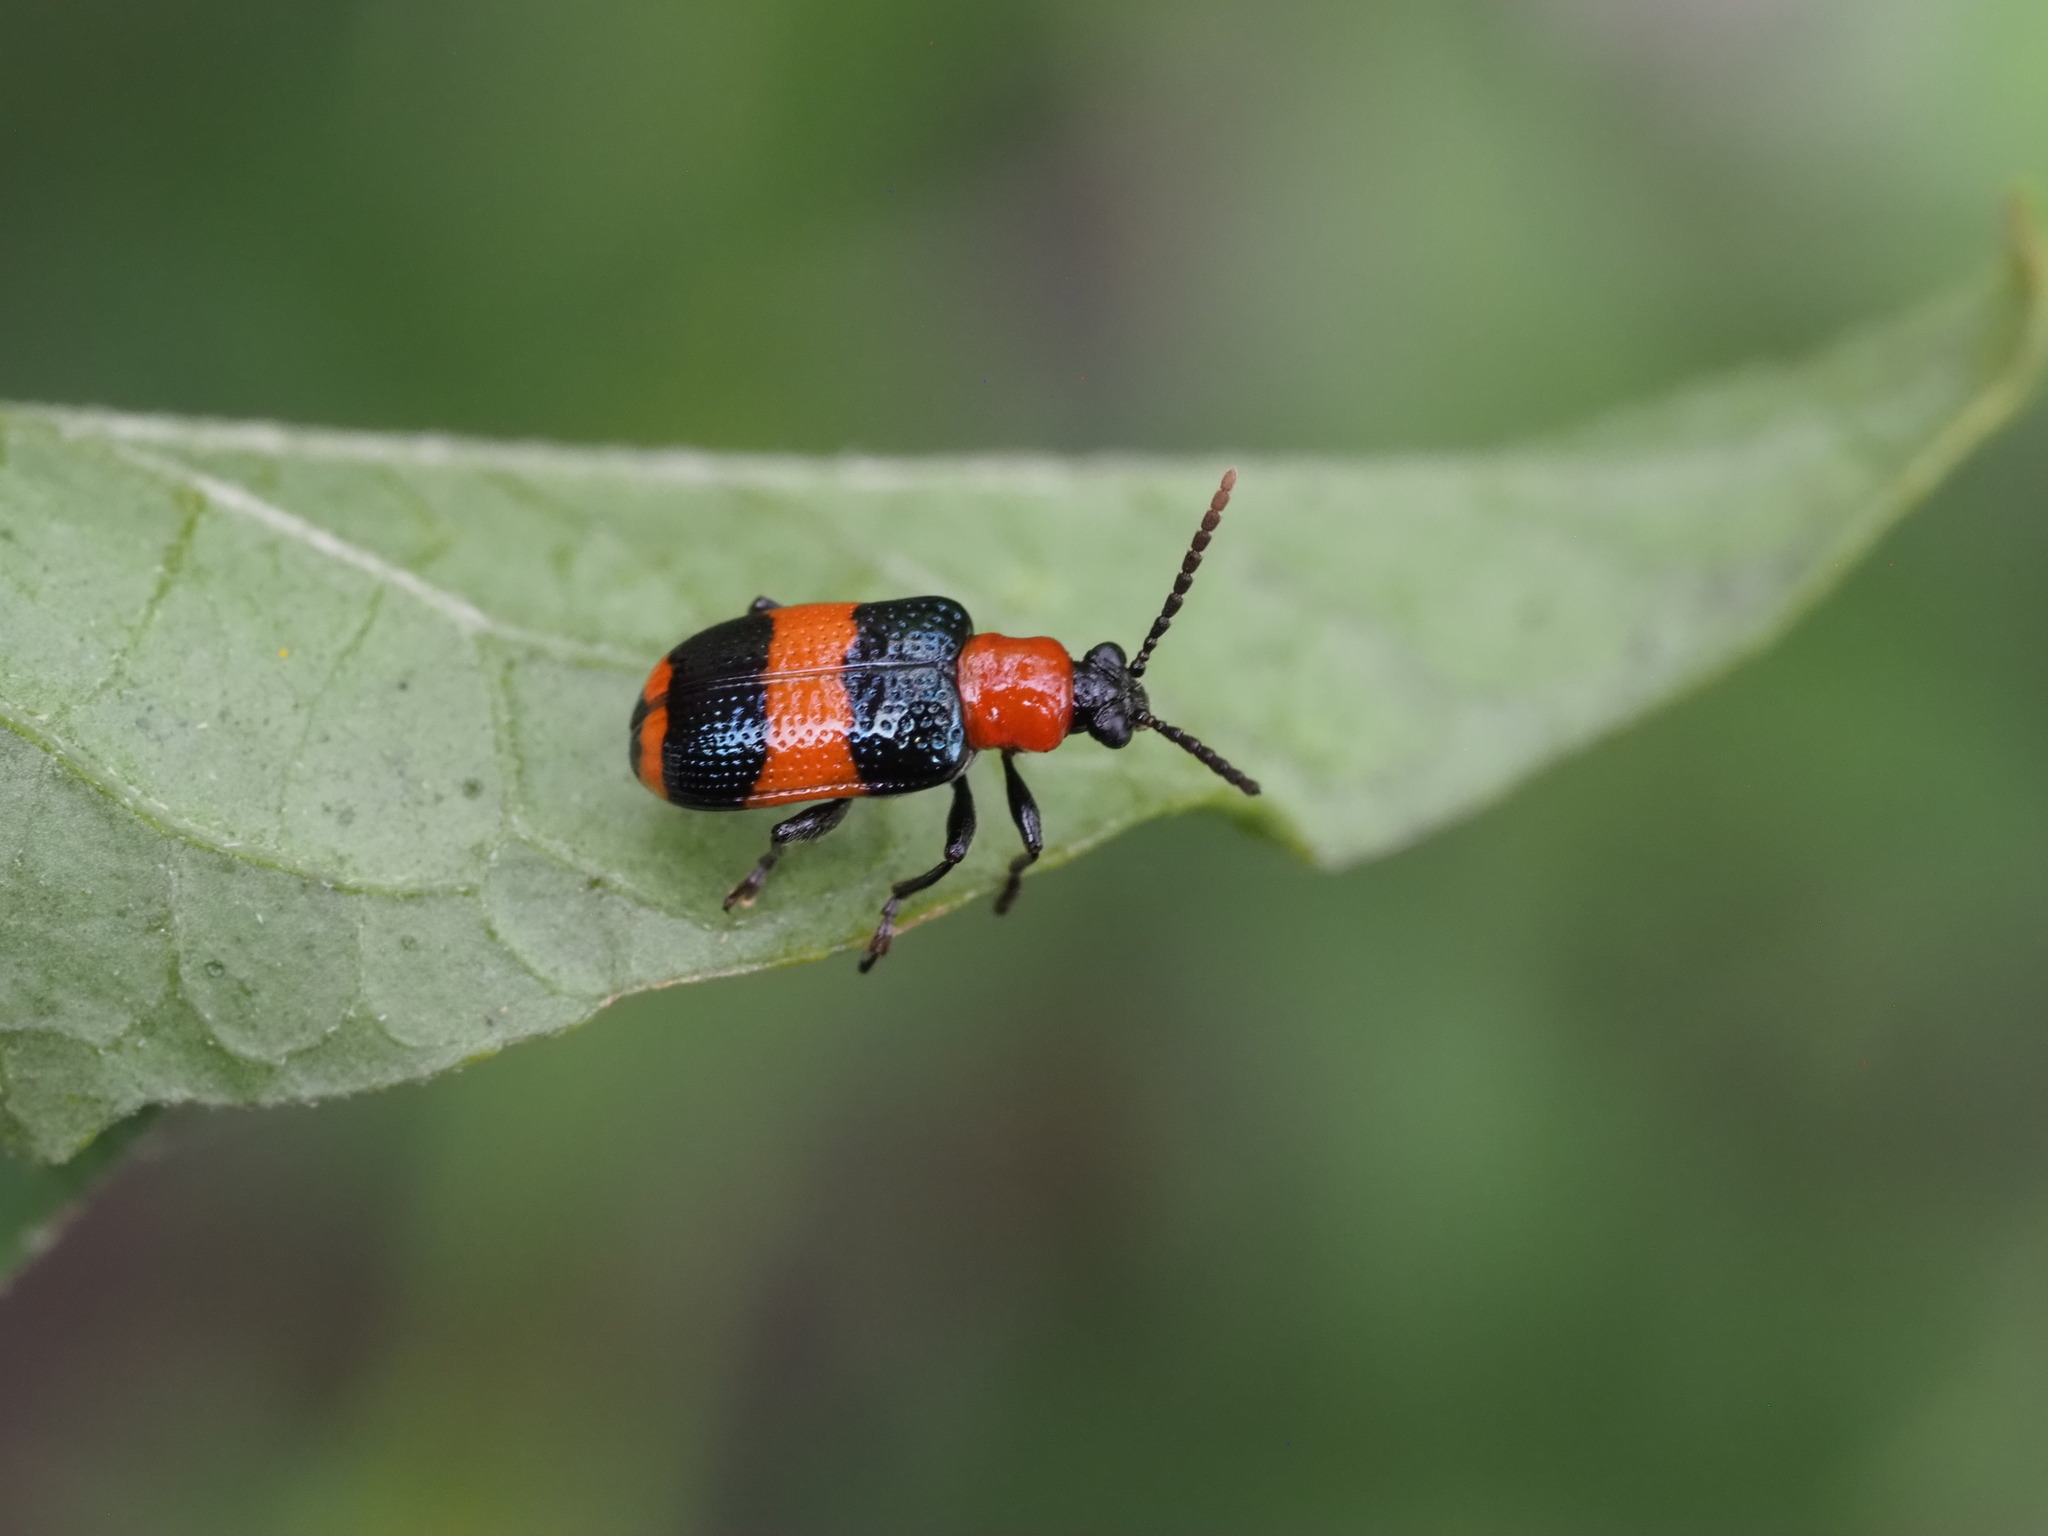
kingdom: Animalia
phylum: Arthropoda
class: Insecta
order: Coleoptera
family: Chrysomelidae
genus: Lema
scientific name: Lema solani
